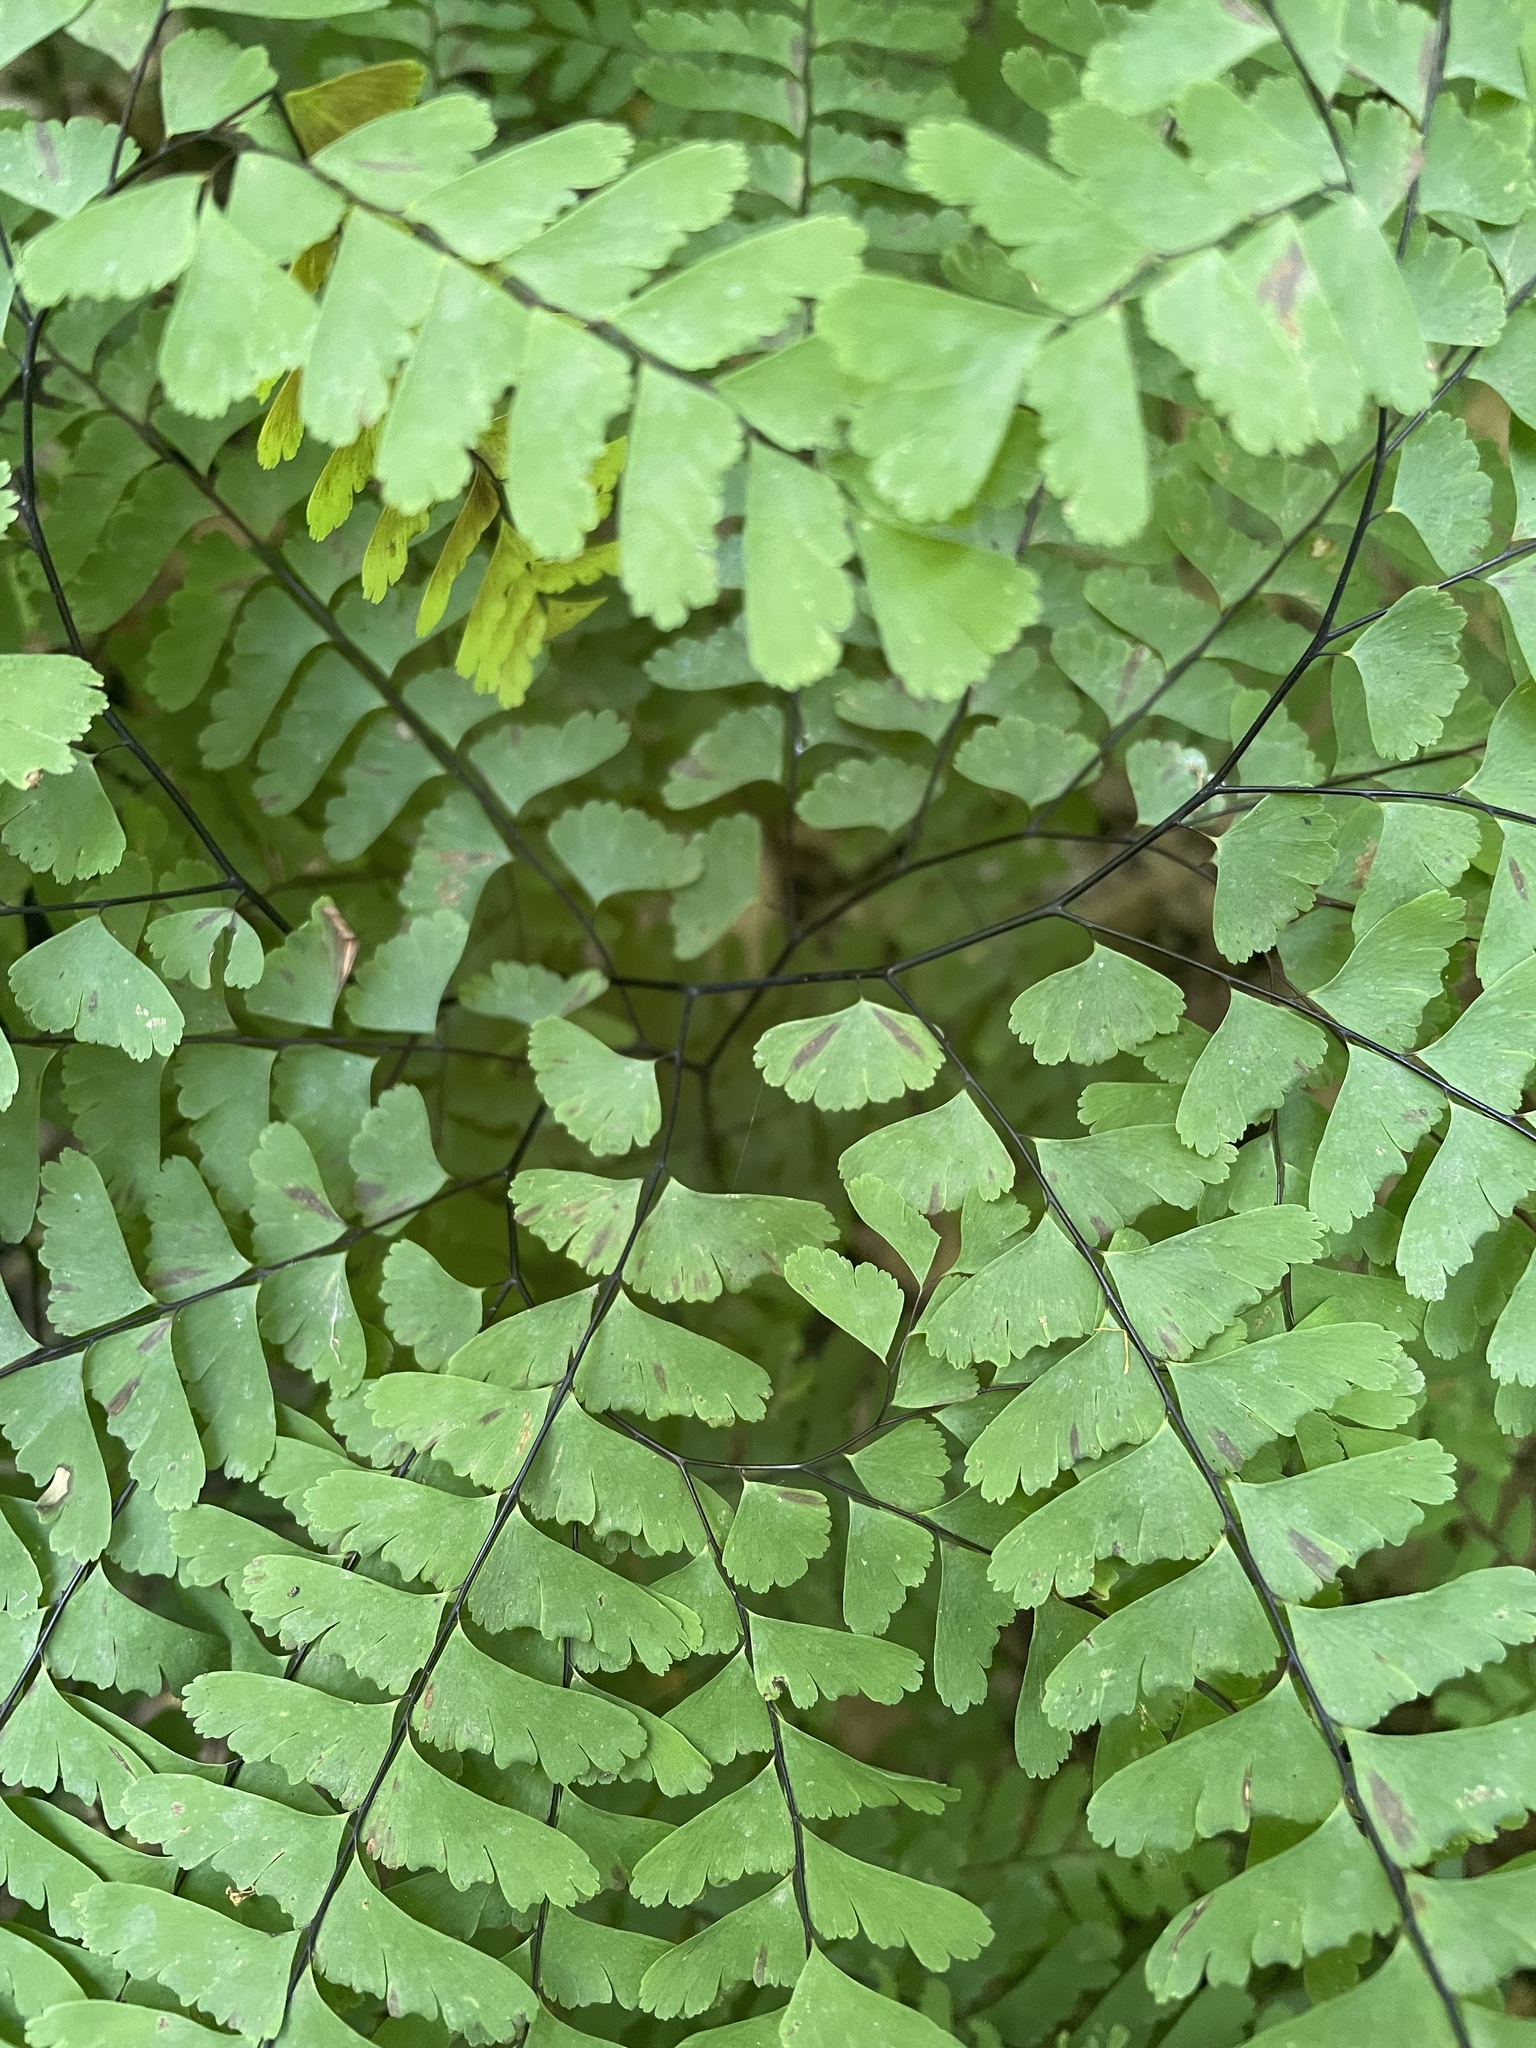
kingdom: Plantae
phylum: Tracheophyta
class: Polypodiopsida
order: Polypodiales
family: Pteridaceae
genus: Adiantum
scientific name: Adiantum pedatum
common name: Five-finger fern
